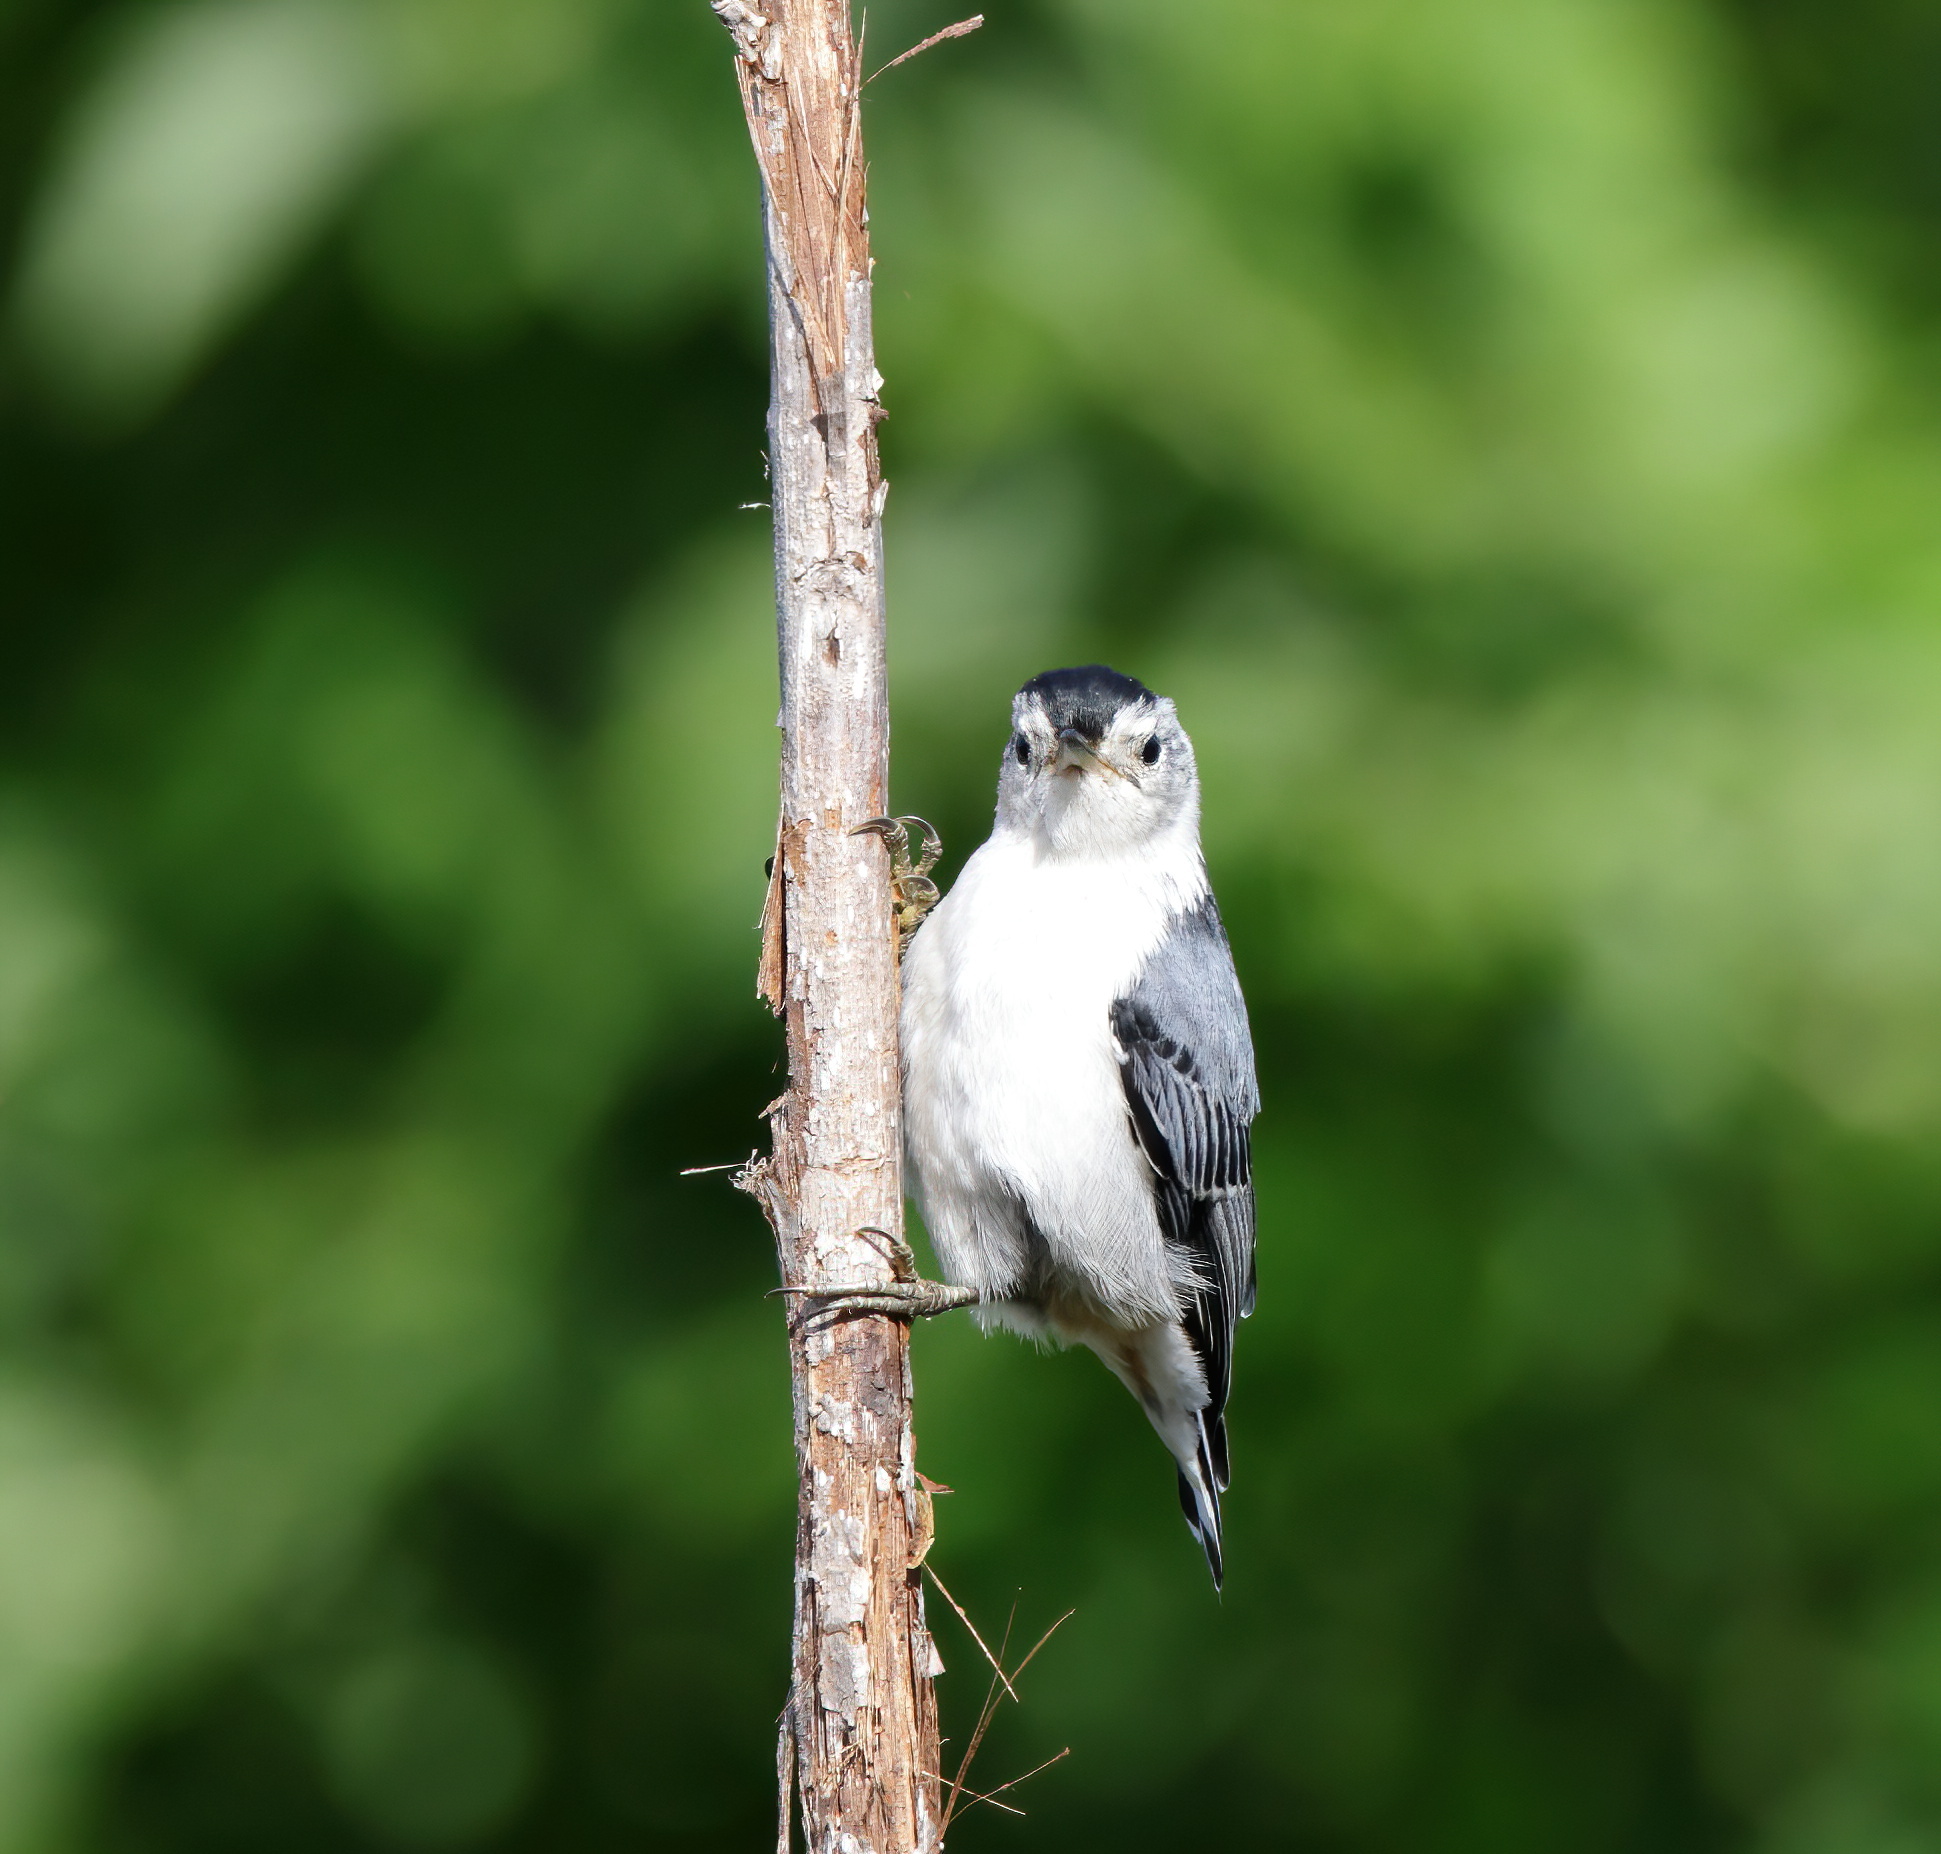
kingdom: Animalia
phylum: Chordata
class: Aves
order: Passeriformes
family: Sittidae
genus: Sitta
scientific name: Sitta carolinensis
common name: White-breasted nuthatch
